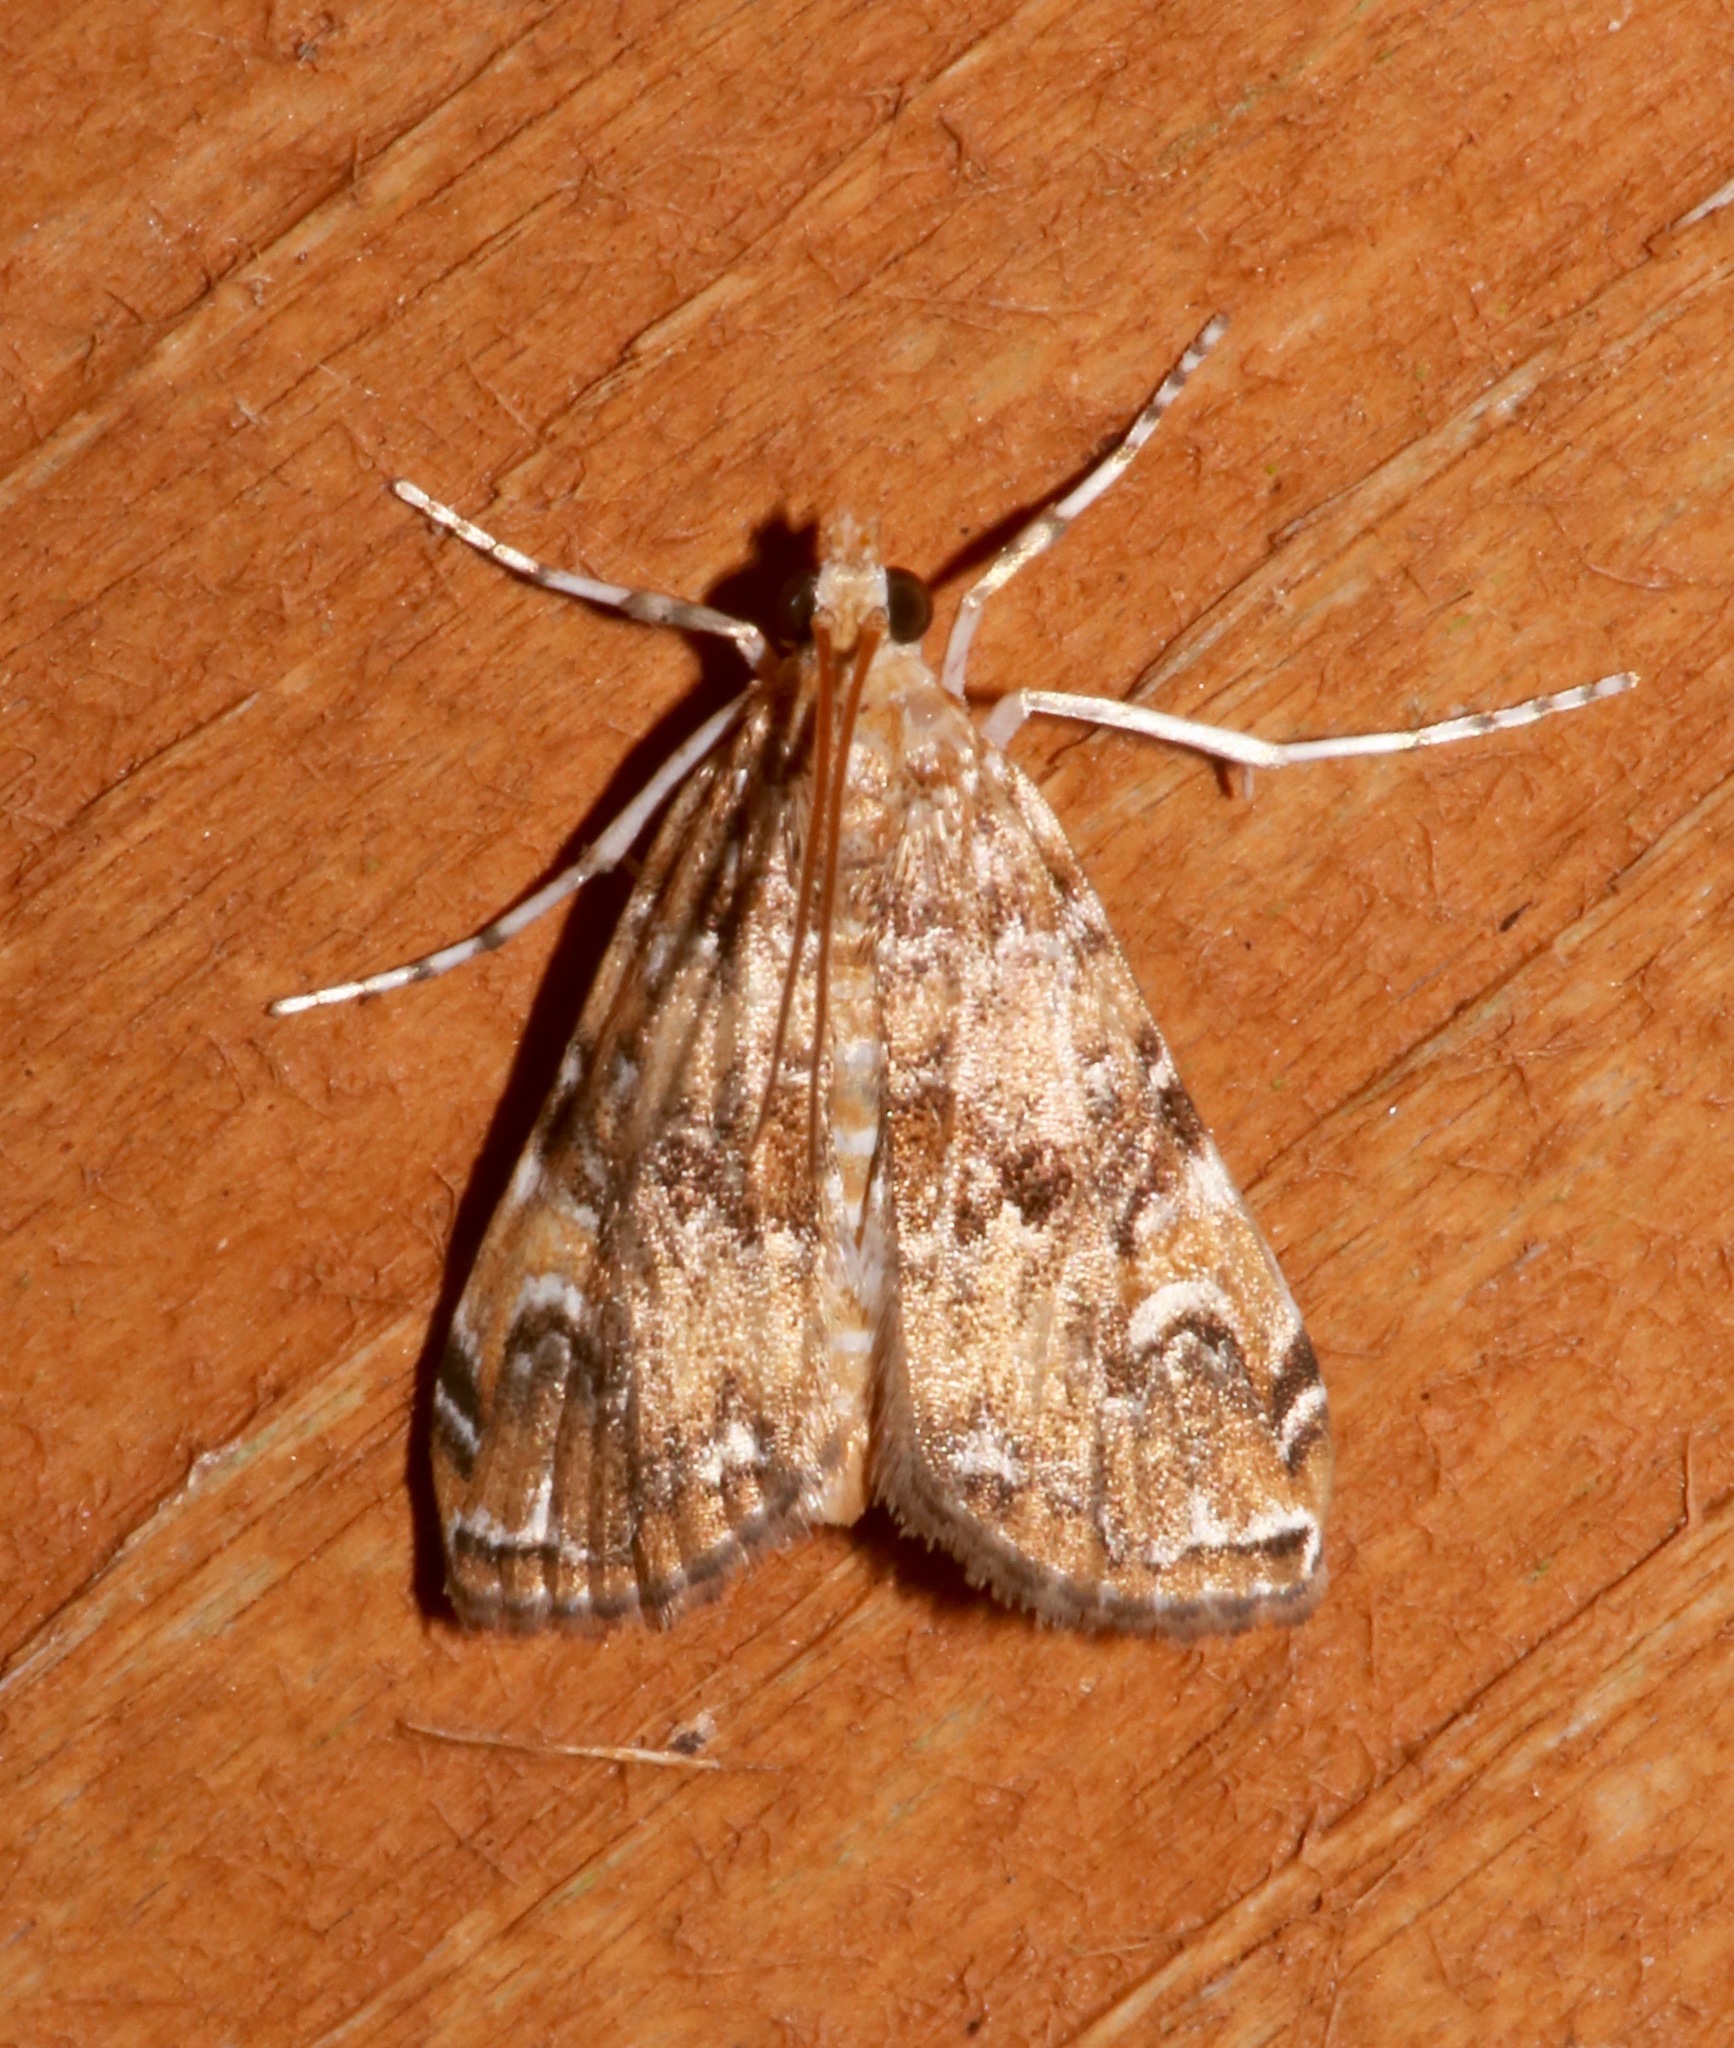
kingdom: Animalia
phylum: Arthropoda
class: Insecta
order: Lepidoptera
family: Crambidae
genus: Elophila
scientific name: Elophila gyralis
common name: Waterlily borer moth
